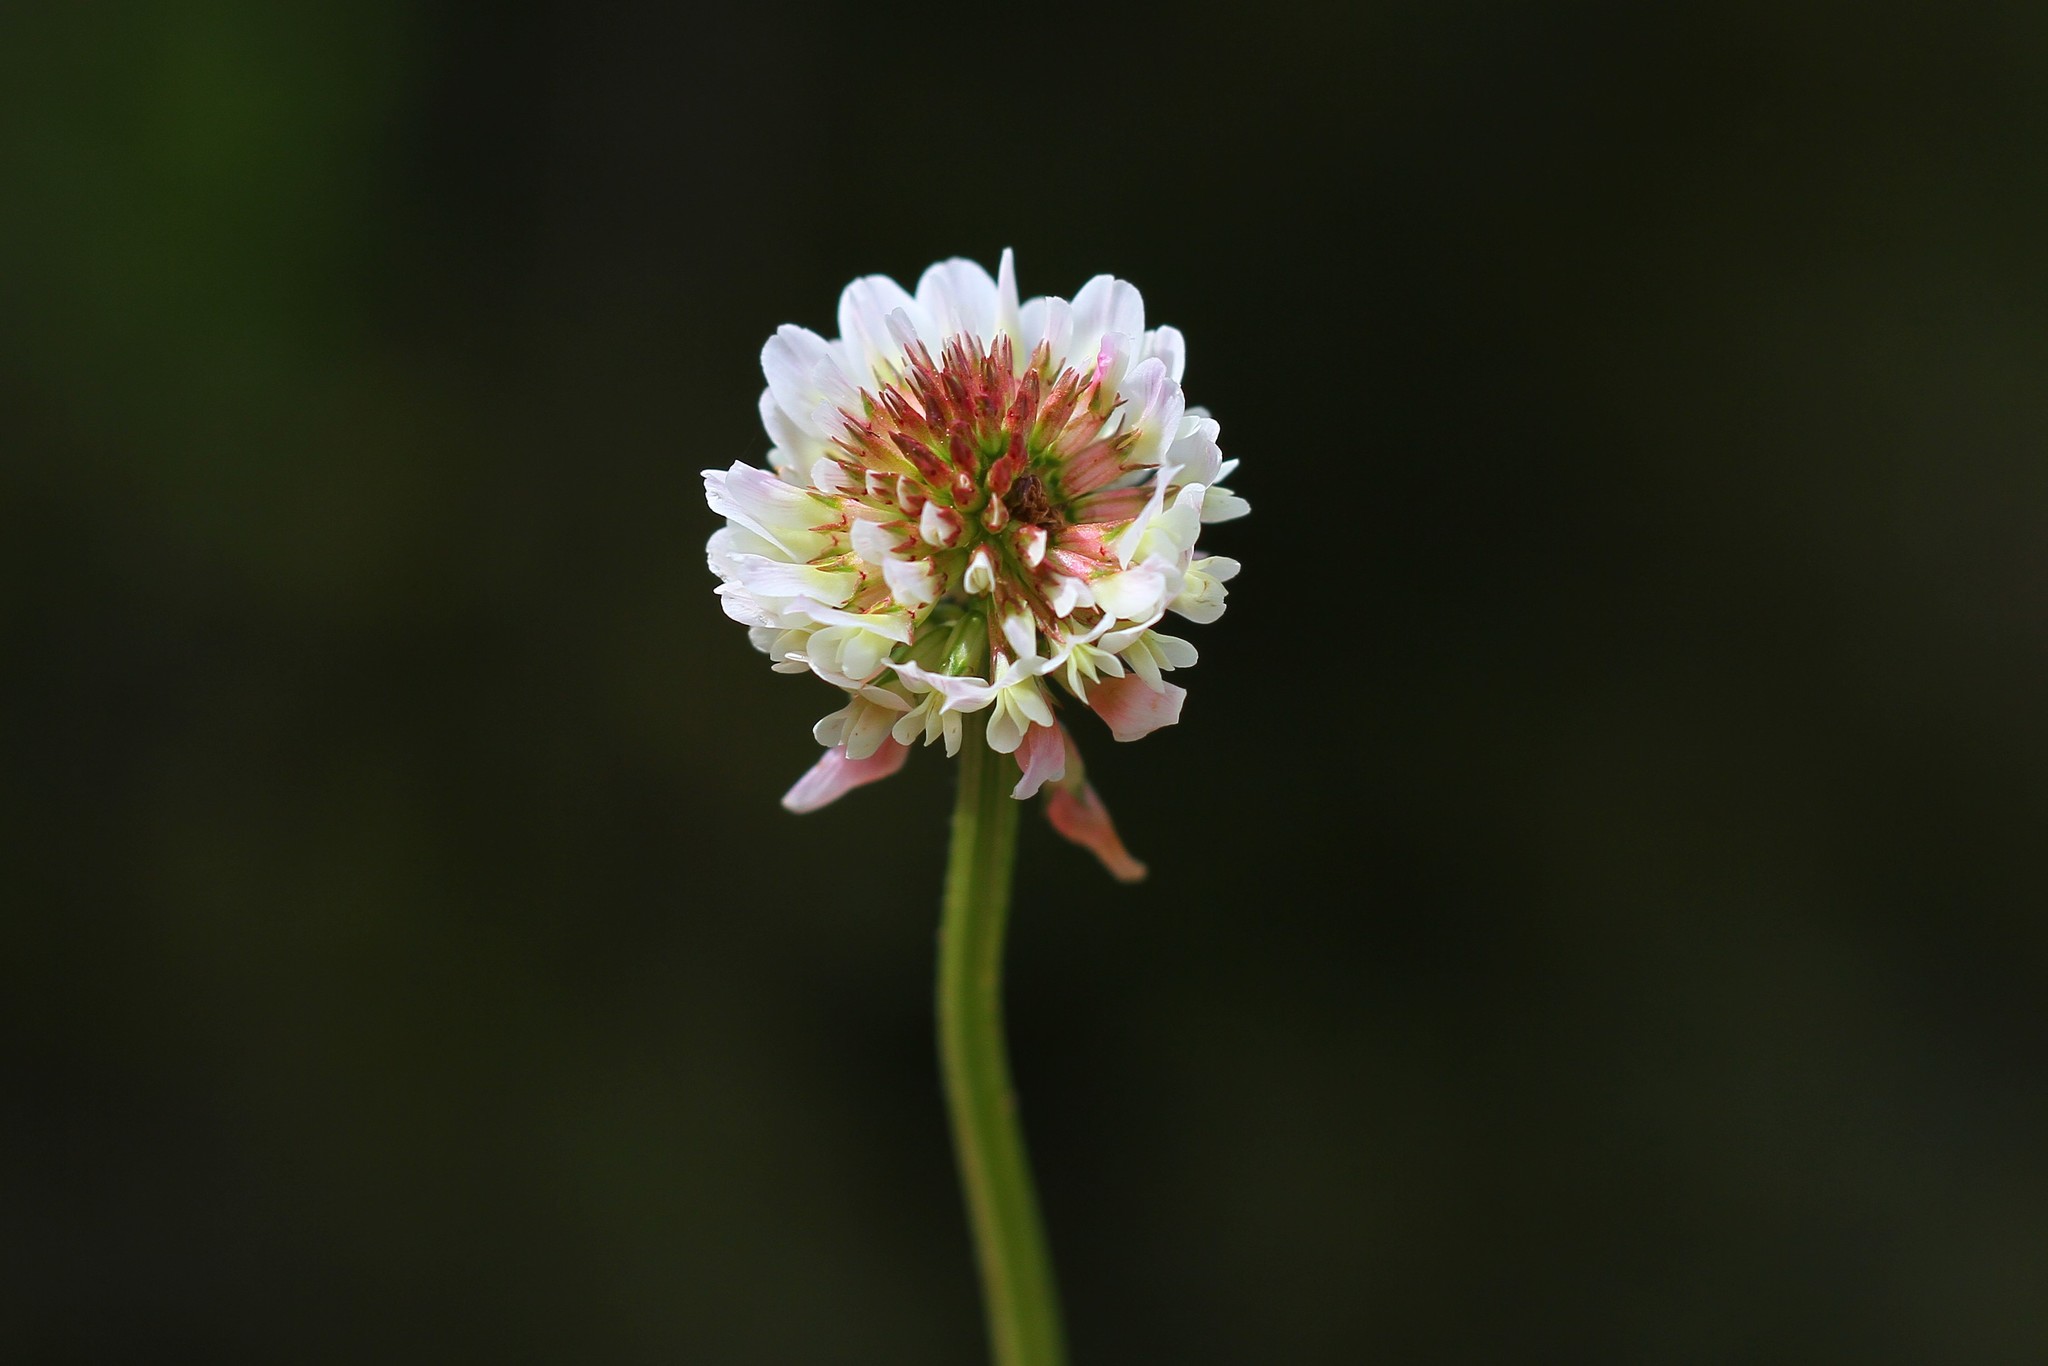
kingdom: Plantae
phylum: Tracheophyta
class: Magnoliopsida
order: Fabales
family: Fabaceae
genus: Trifolium
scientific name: Trifolium repens
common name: White clover
